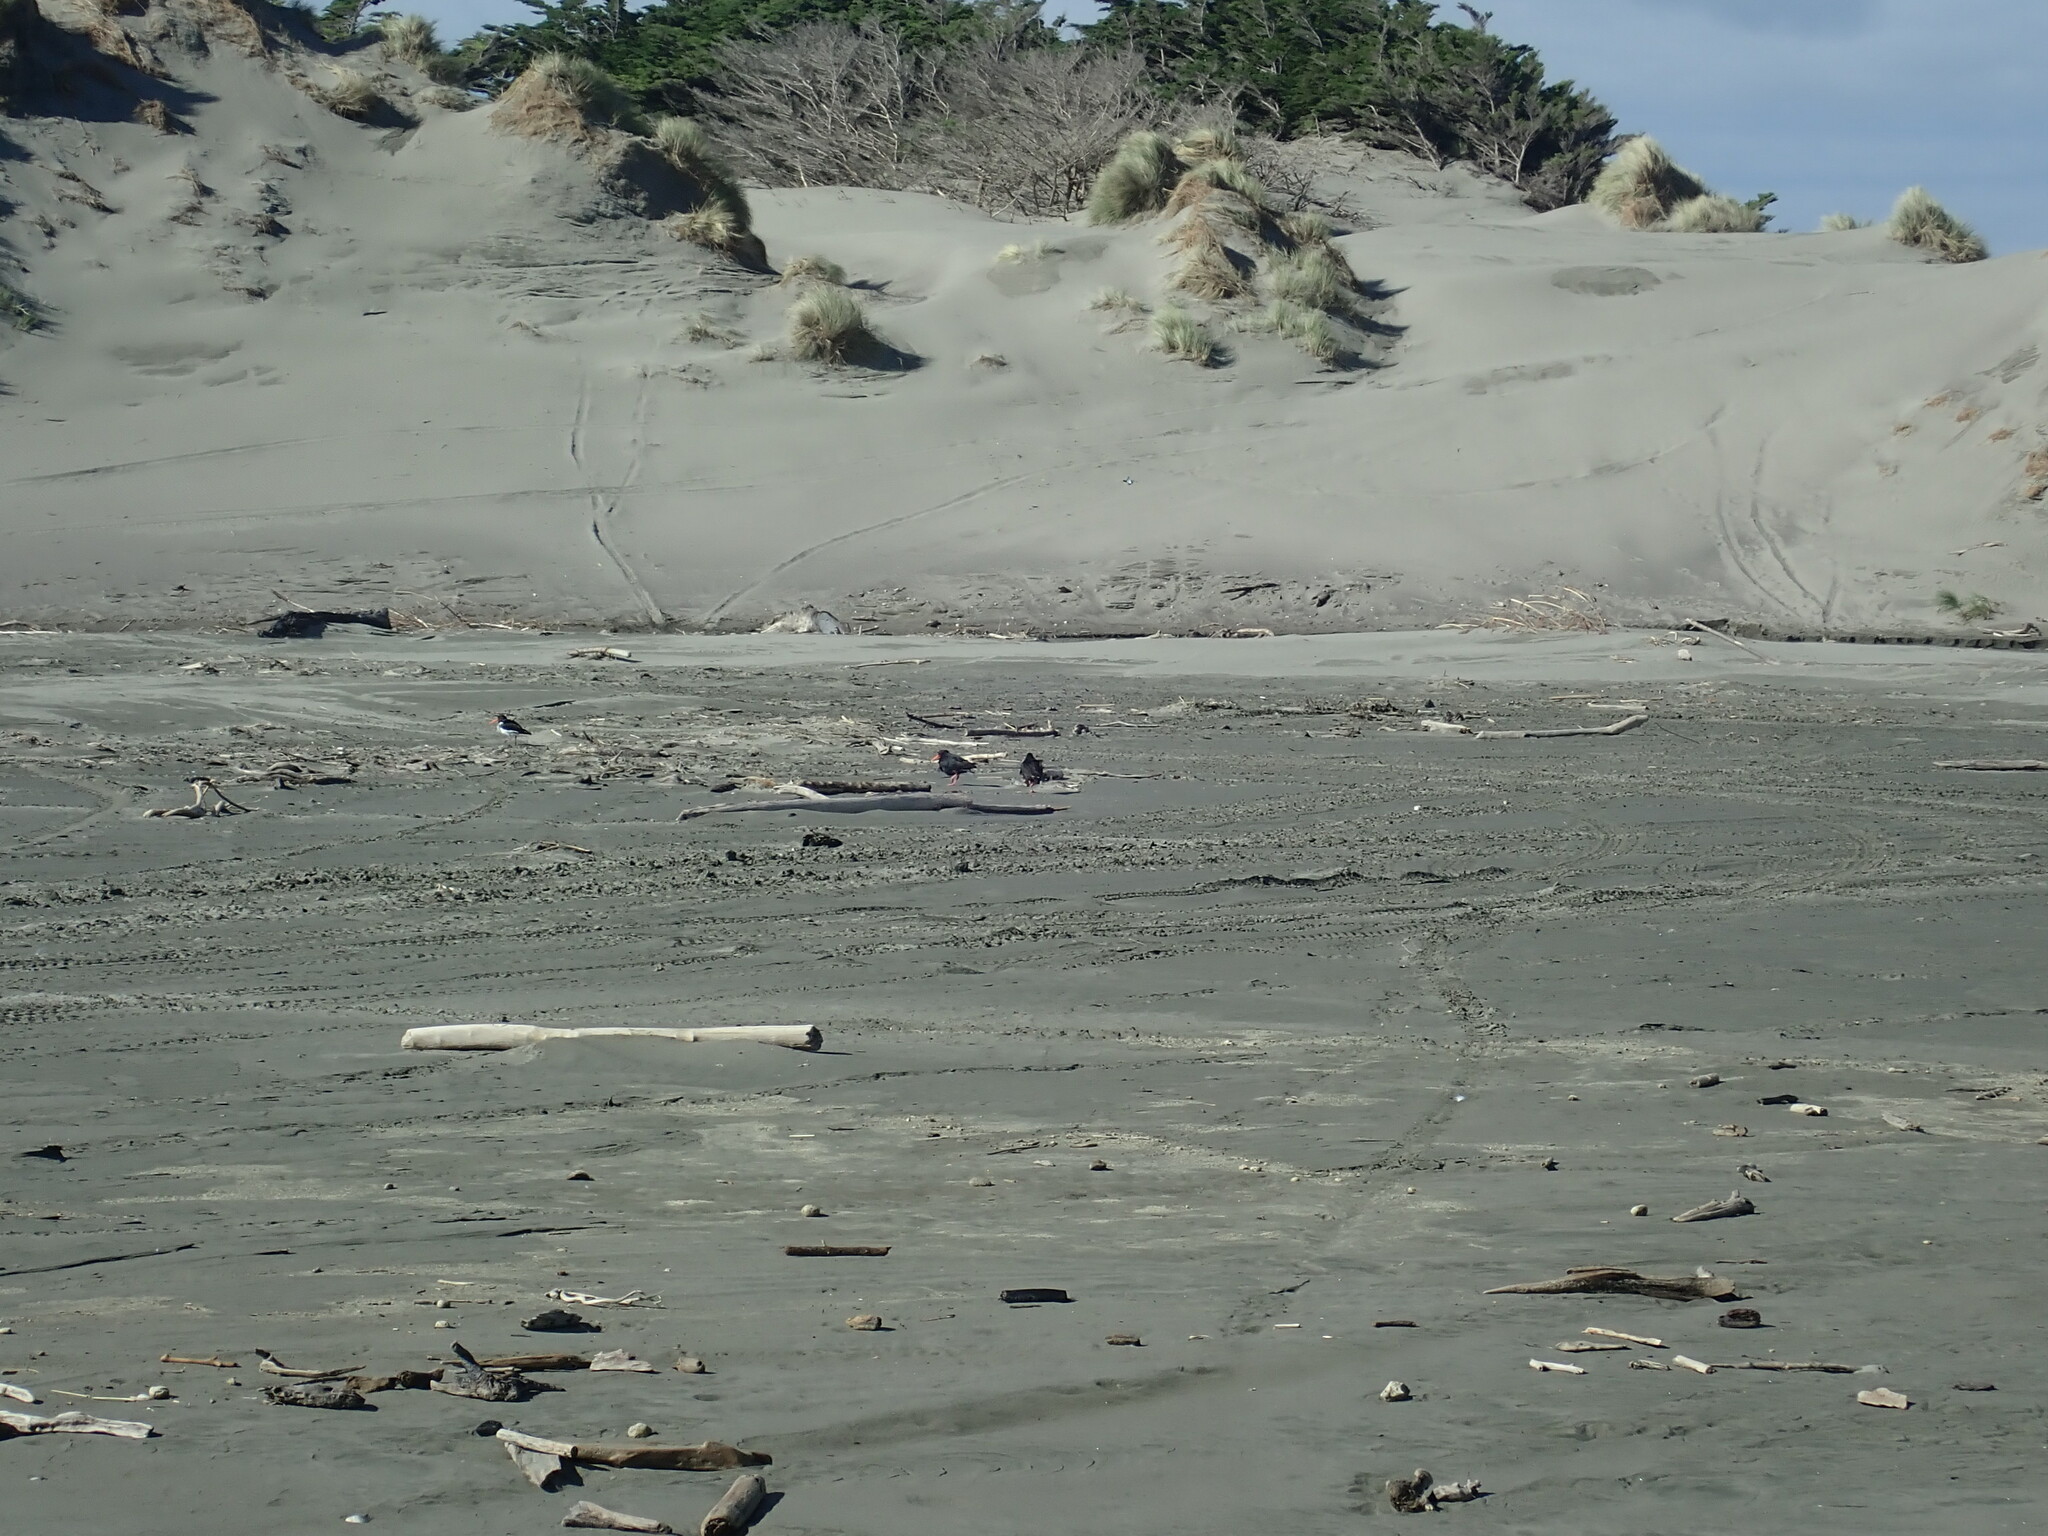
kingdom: Animalia
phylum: Chordata
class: Aves
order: Charadriiformes
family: Haematopodidae
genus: Haematopus
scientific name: Haematopus unicolor
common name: Variable oystercatcher
